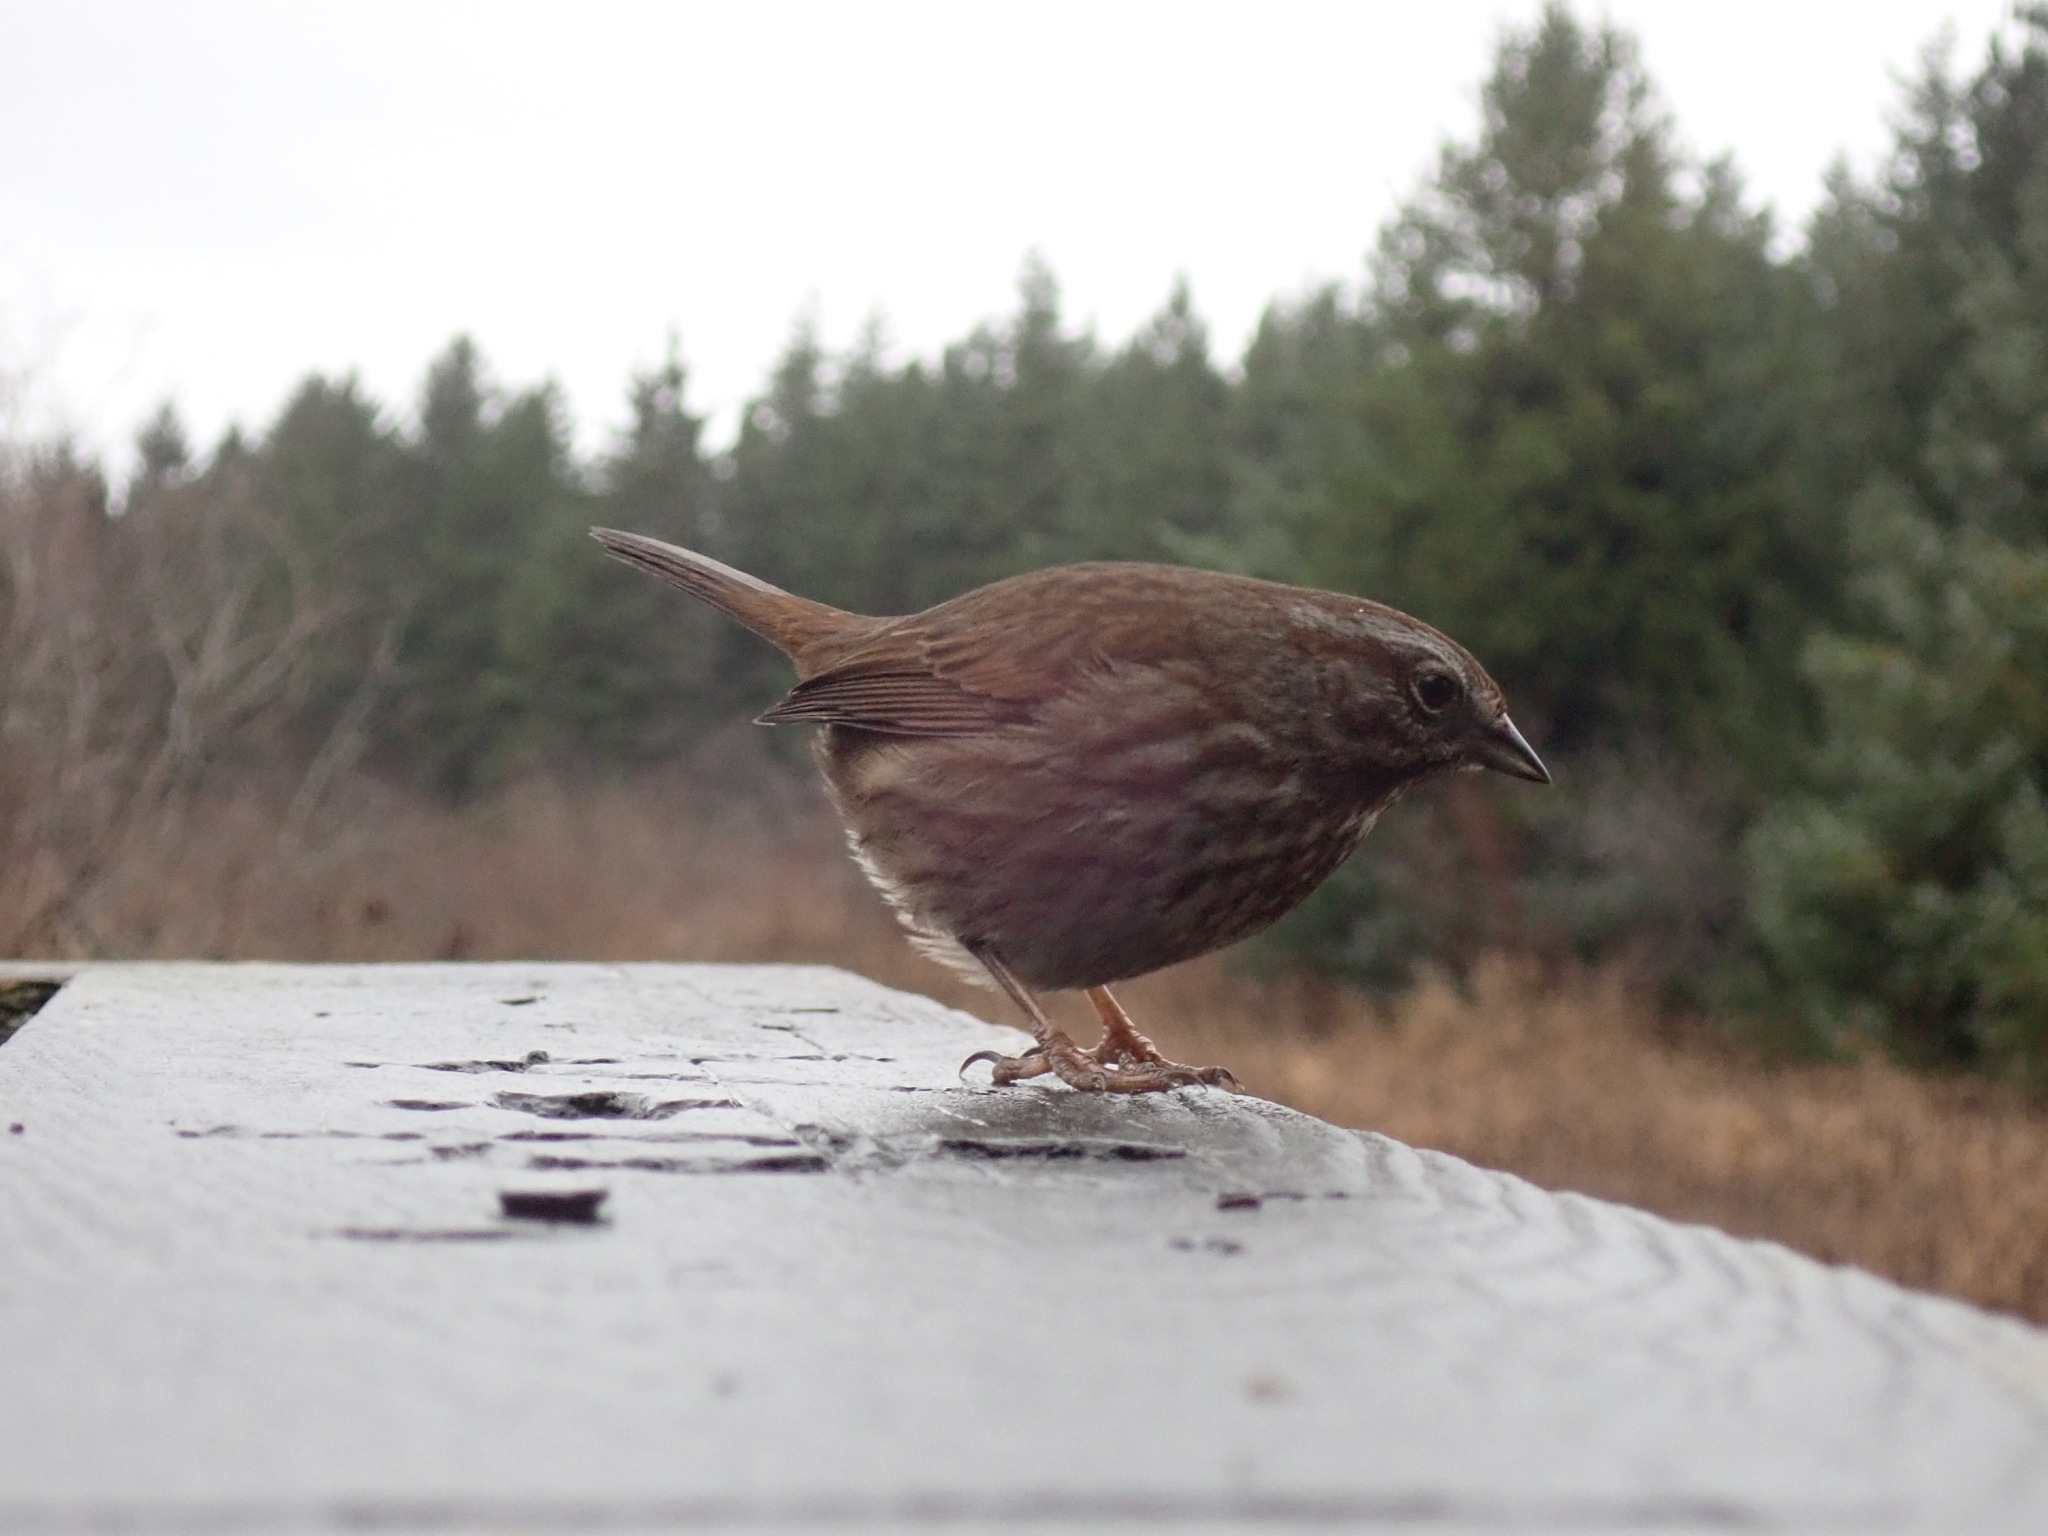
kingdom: Animalia
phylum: Chordata
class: Aves
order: Passeriformes
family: Passerellidae
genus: Melospiza
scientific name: Melospiza melodia
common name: Song sparrow
